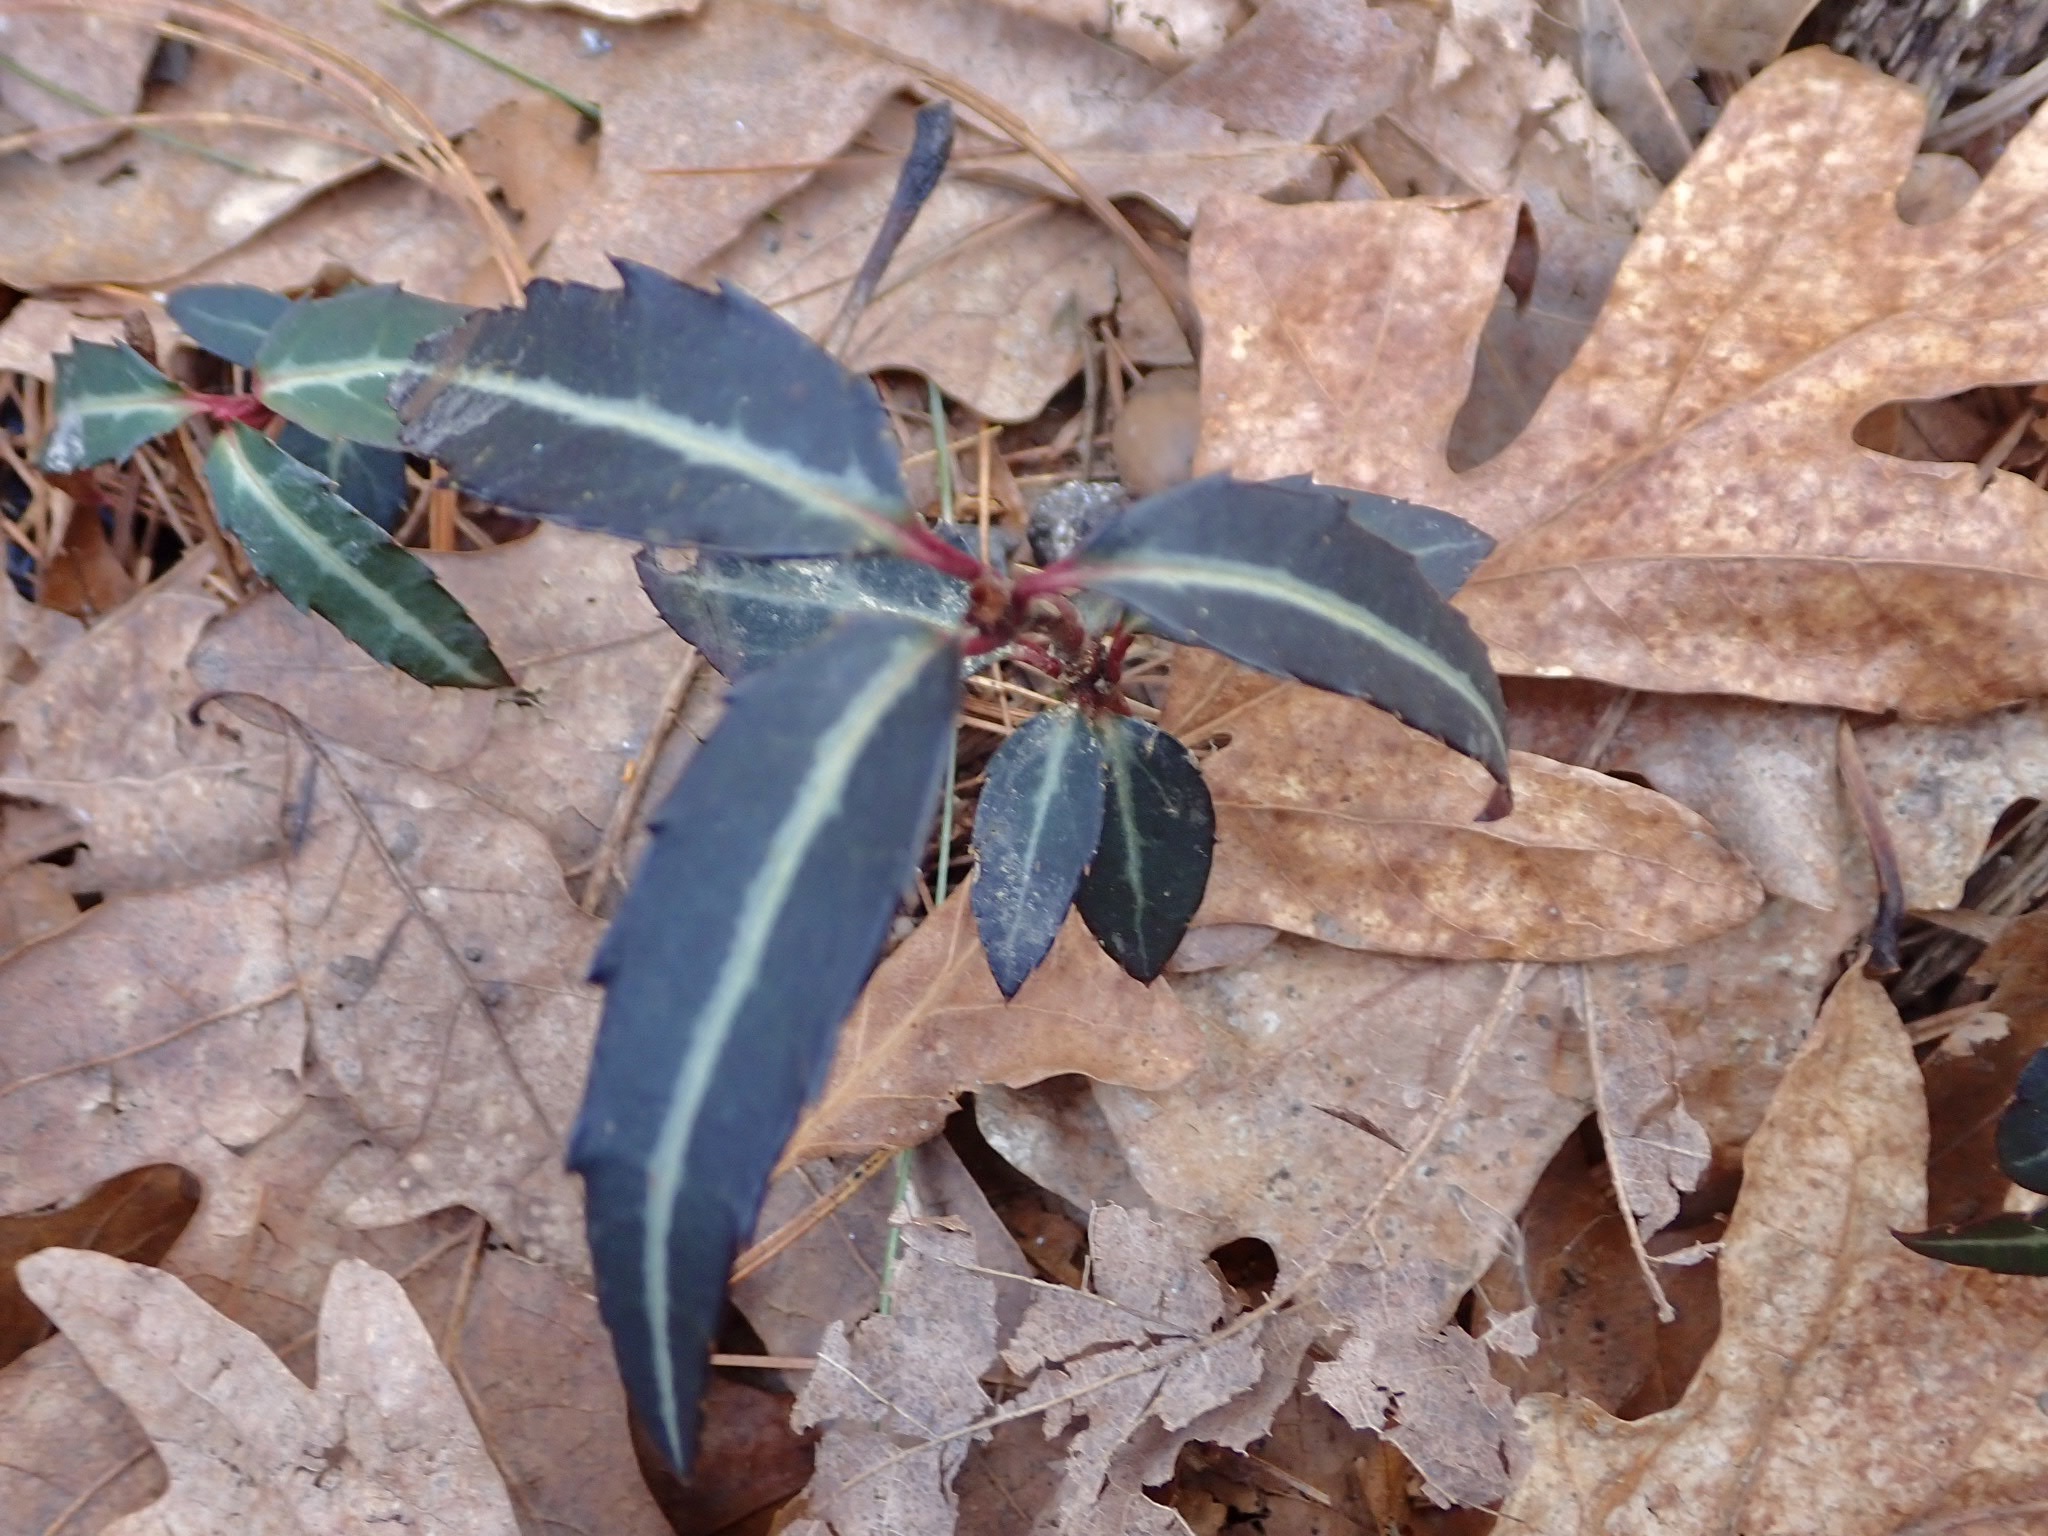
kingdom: Plantae
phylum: Tracheophyta
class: Magnoliopsida
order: Ericales
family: Ericaceae
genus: Chimaphila
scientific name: Chimaphila maculata
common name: Spotted pipsissewa
